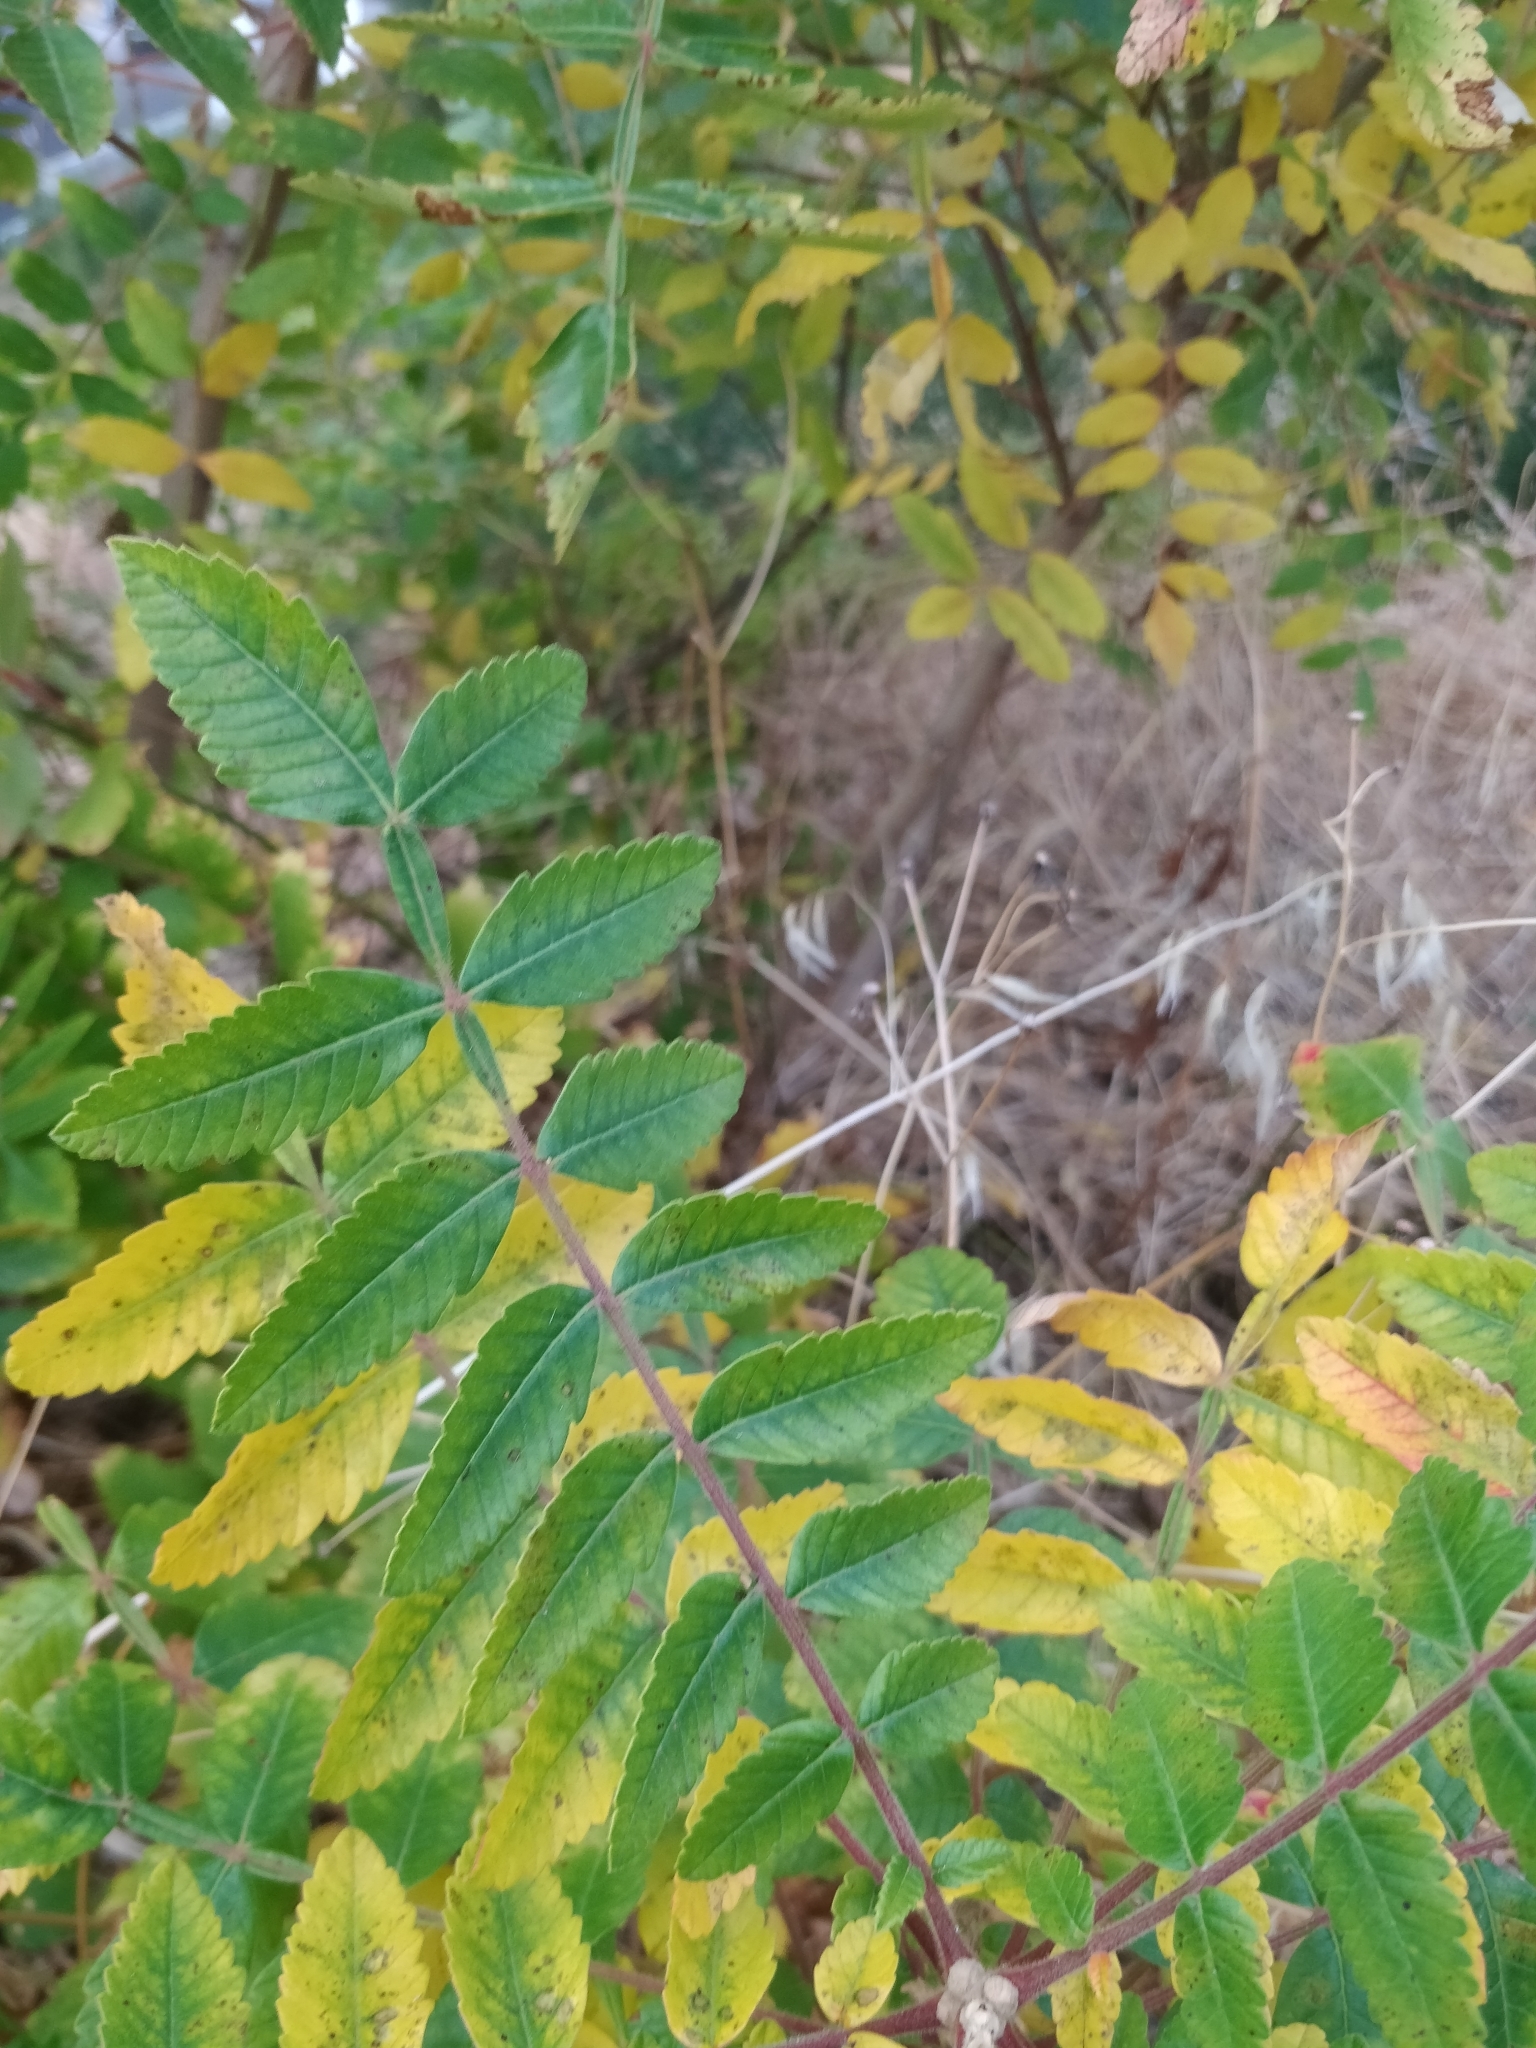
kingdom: Plantae
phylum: Tracheophyta
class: Magnoliopsida
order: Sapindales
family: Anacardiaceae
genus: Rhus
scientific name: Rhus coriaria
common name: Tanner's sumach
